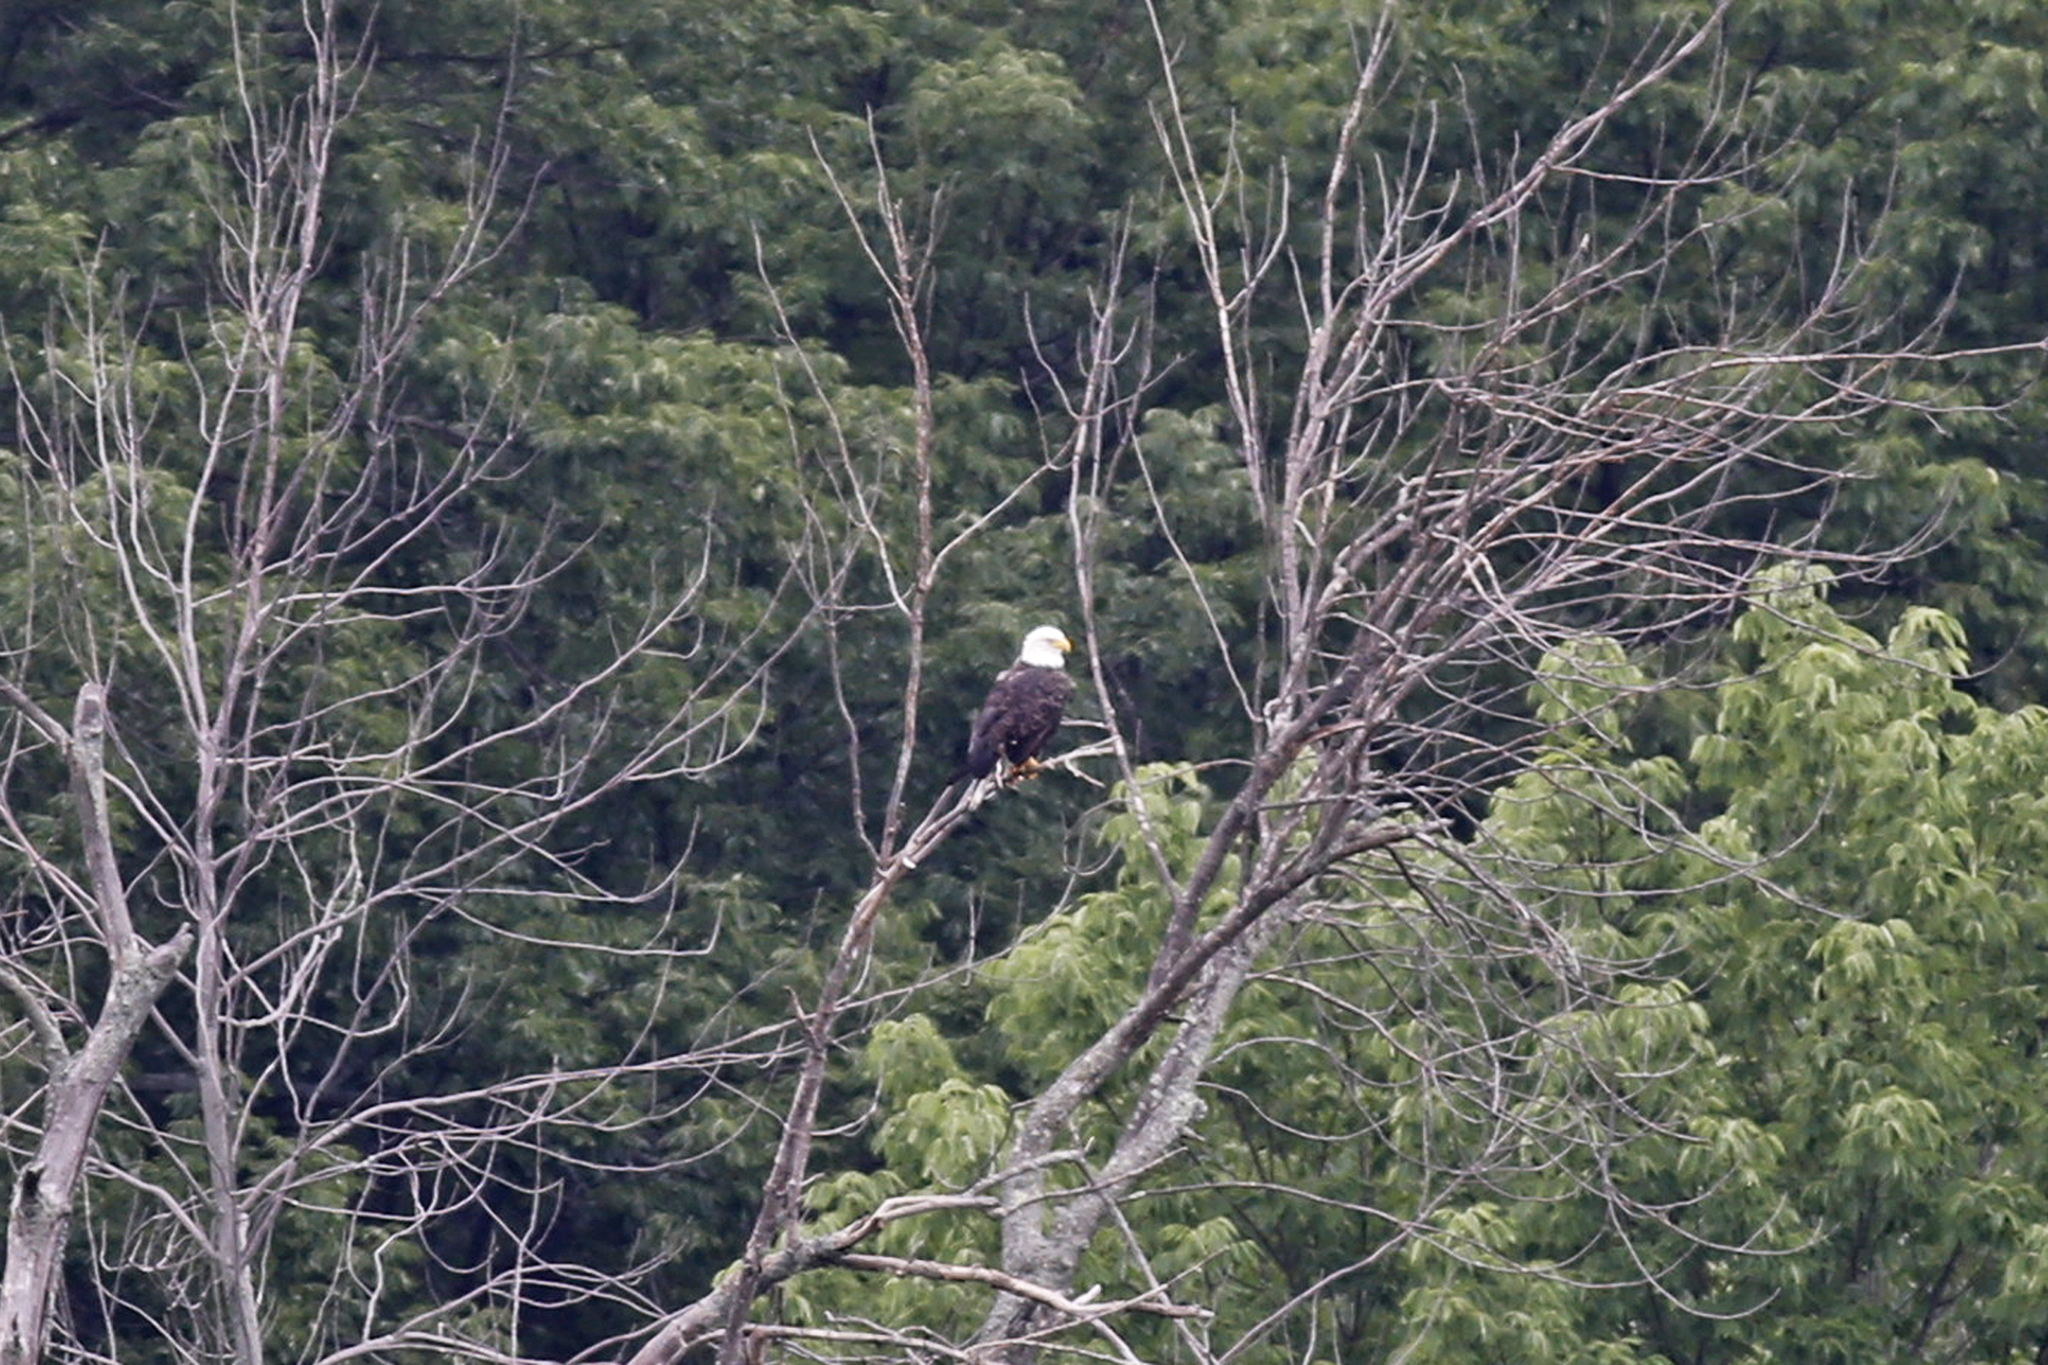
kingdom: Animalia
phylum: Chordata
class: Aves
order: Accipitriformes
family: Accipitridae
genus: Haliaeetus
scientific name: Haliaeetus leucocephalus
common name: Bald eagle
